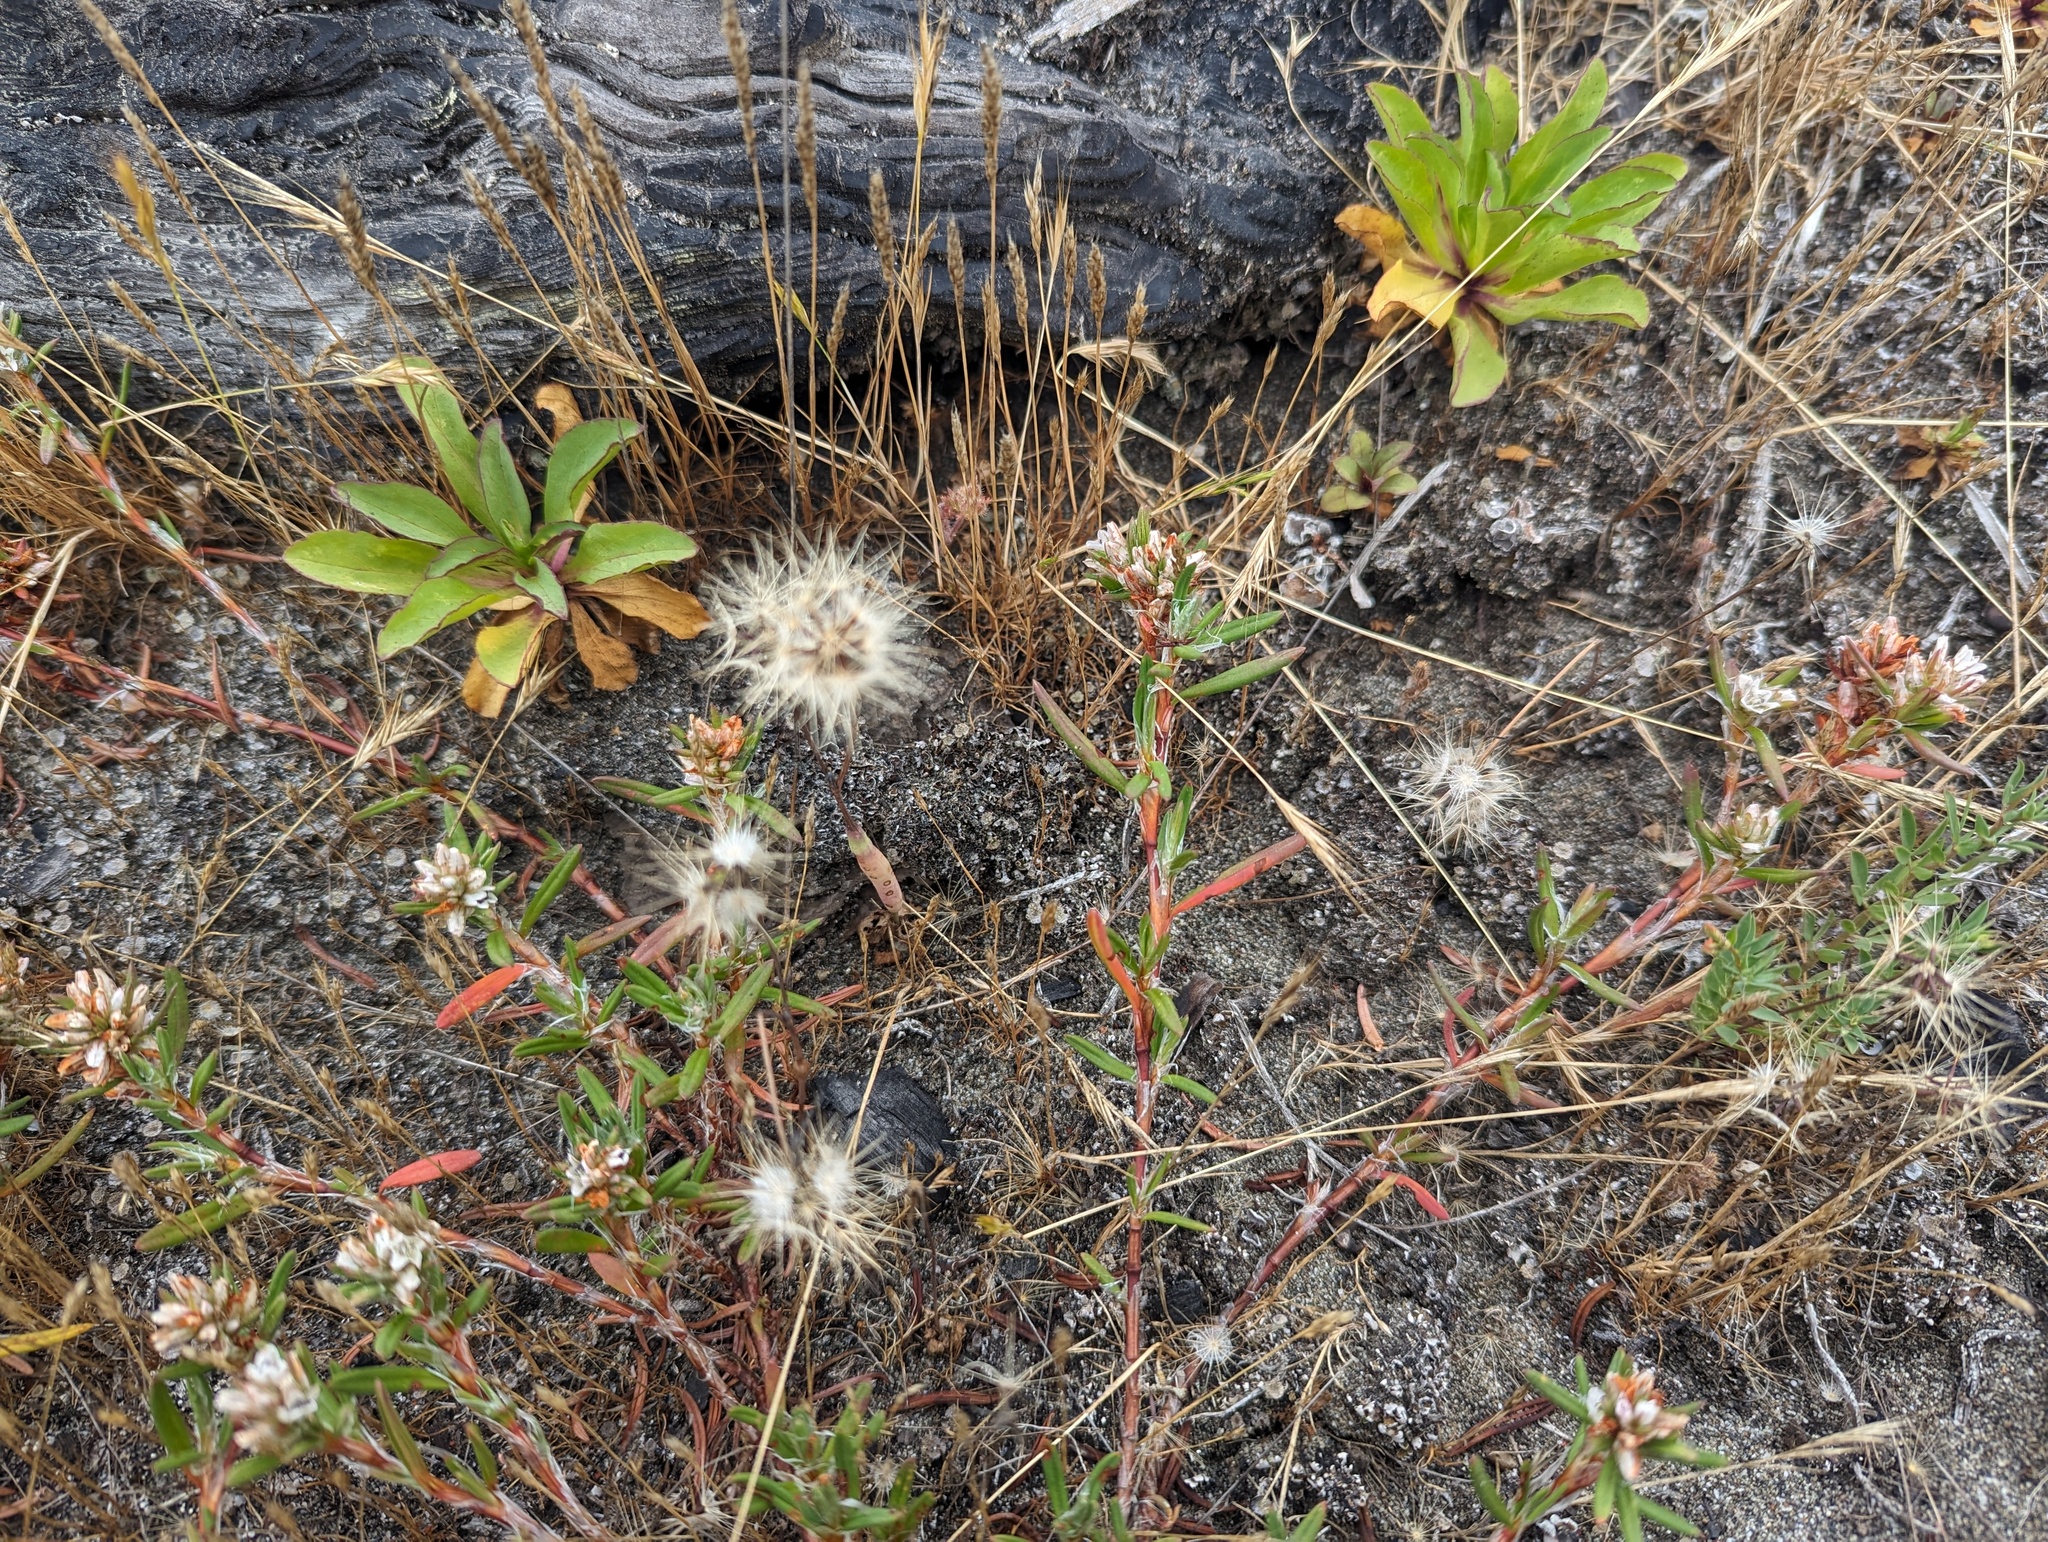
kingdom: Plantae
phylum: Tracheophyta
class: Magnoliopsida
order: Caryophyllales
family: Polygonaceae
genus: Polygonum
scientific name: Polygonum paronychia
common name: Dune knotweed
